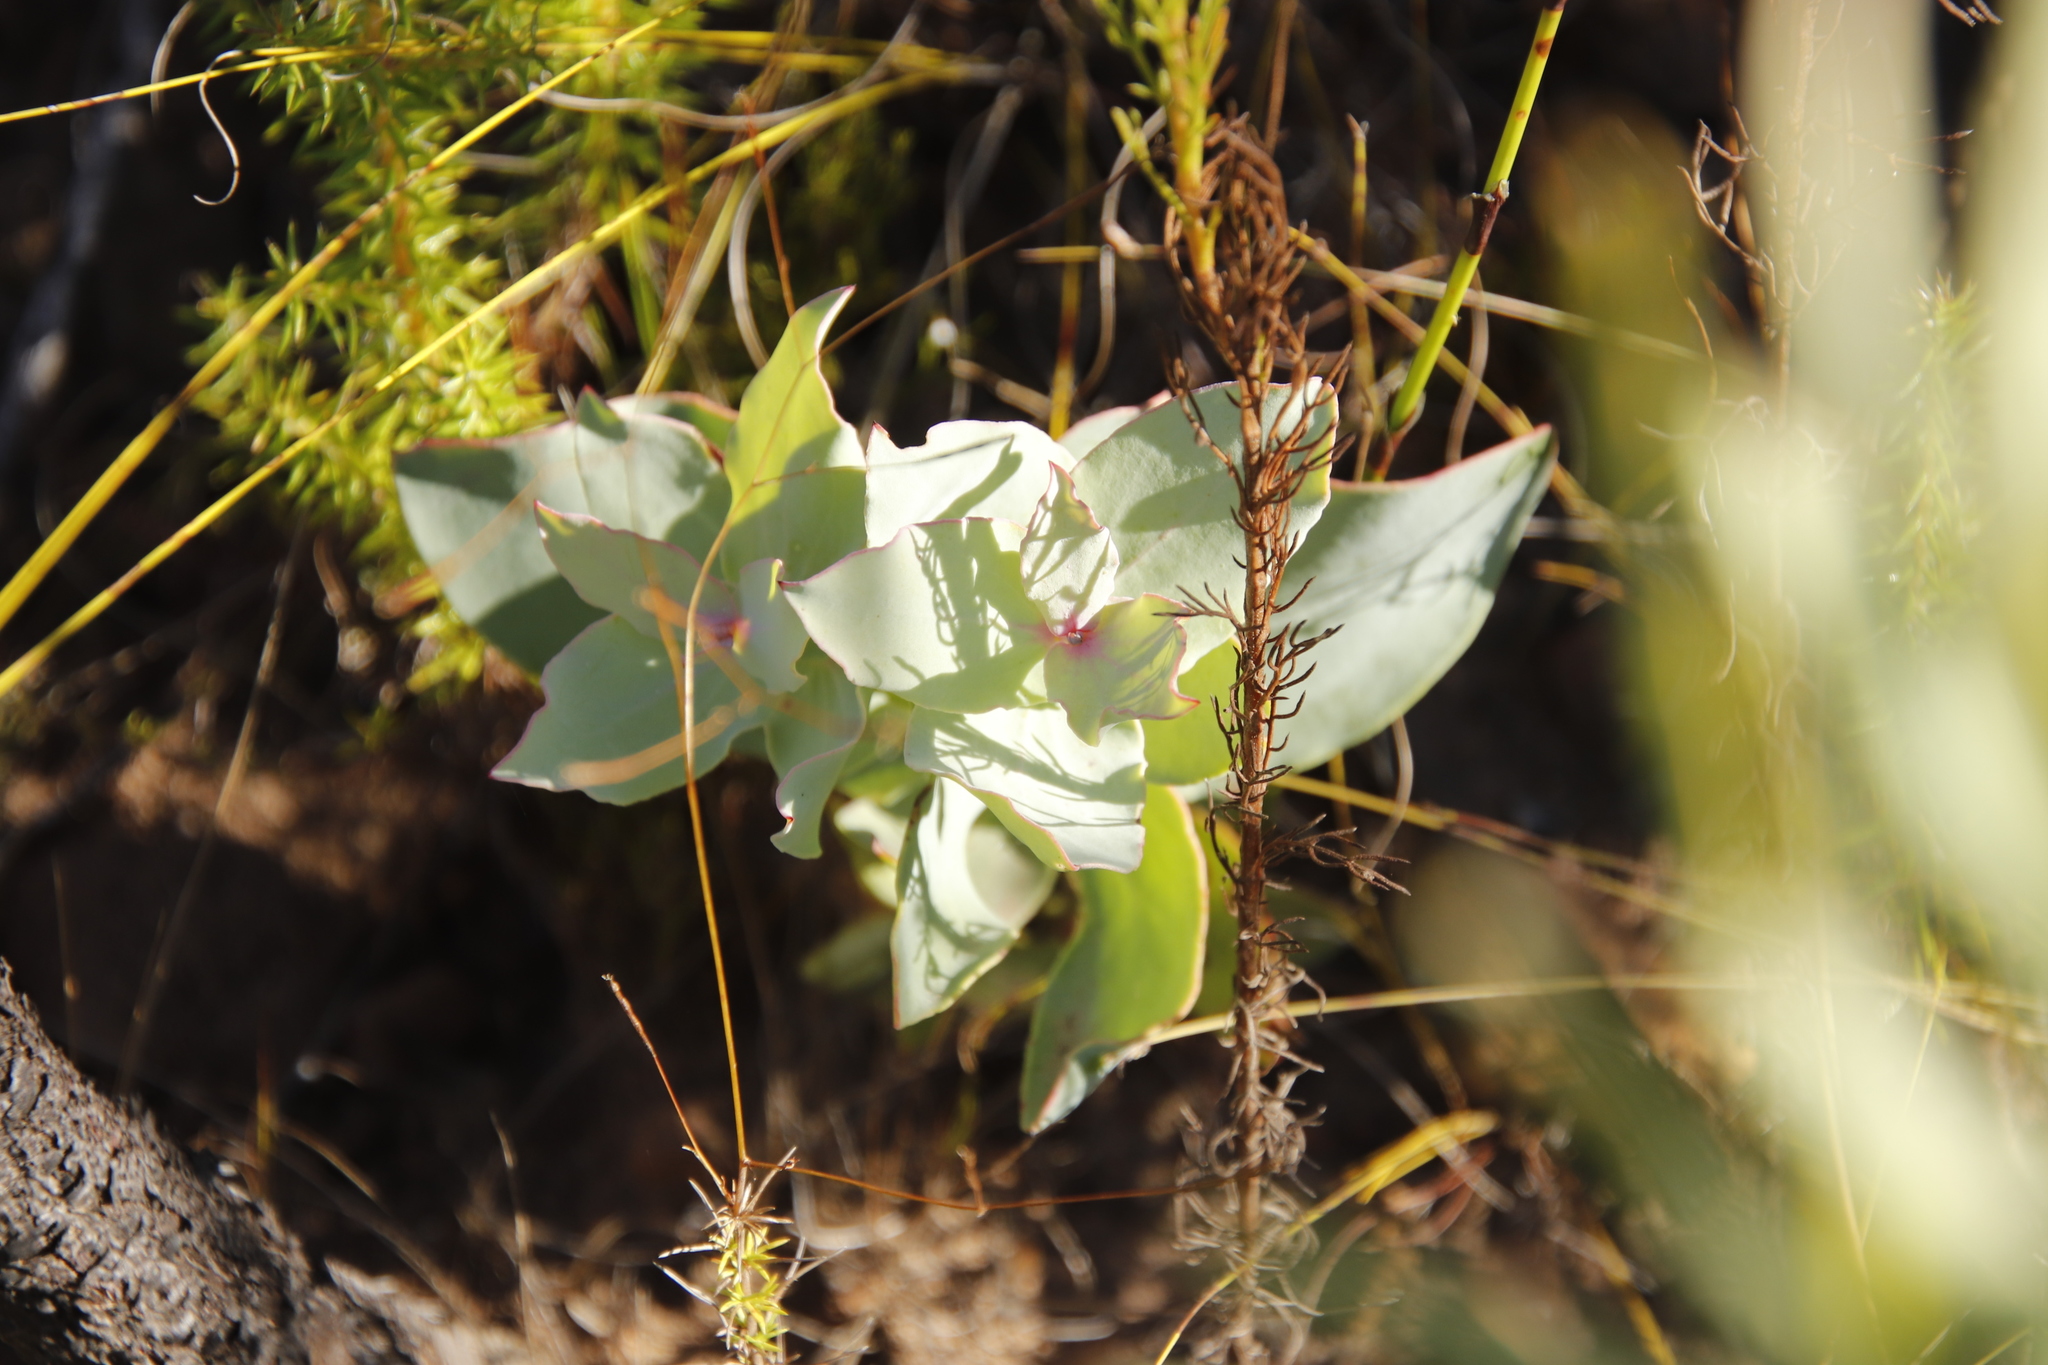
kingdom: Plantae
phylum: Tracheophyta
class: Magnoliopsida
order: Proteales
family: Proteaceae
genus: Protea
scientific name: Protea amplexicaulis
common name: Clasping-leaf sugarbush
